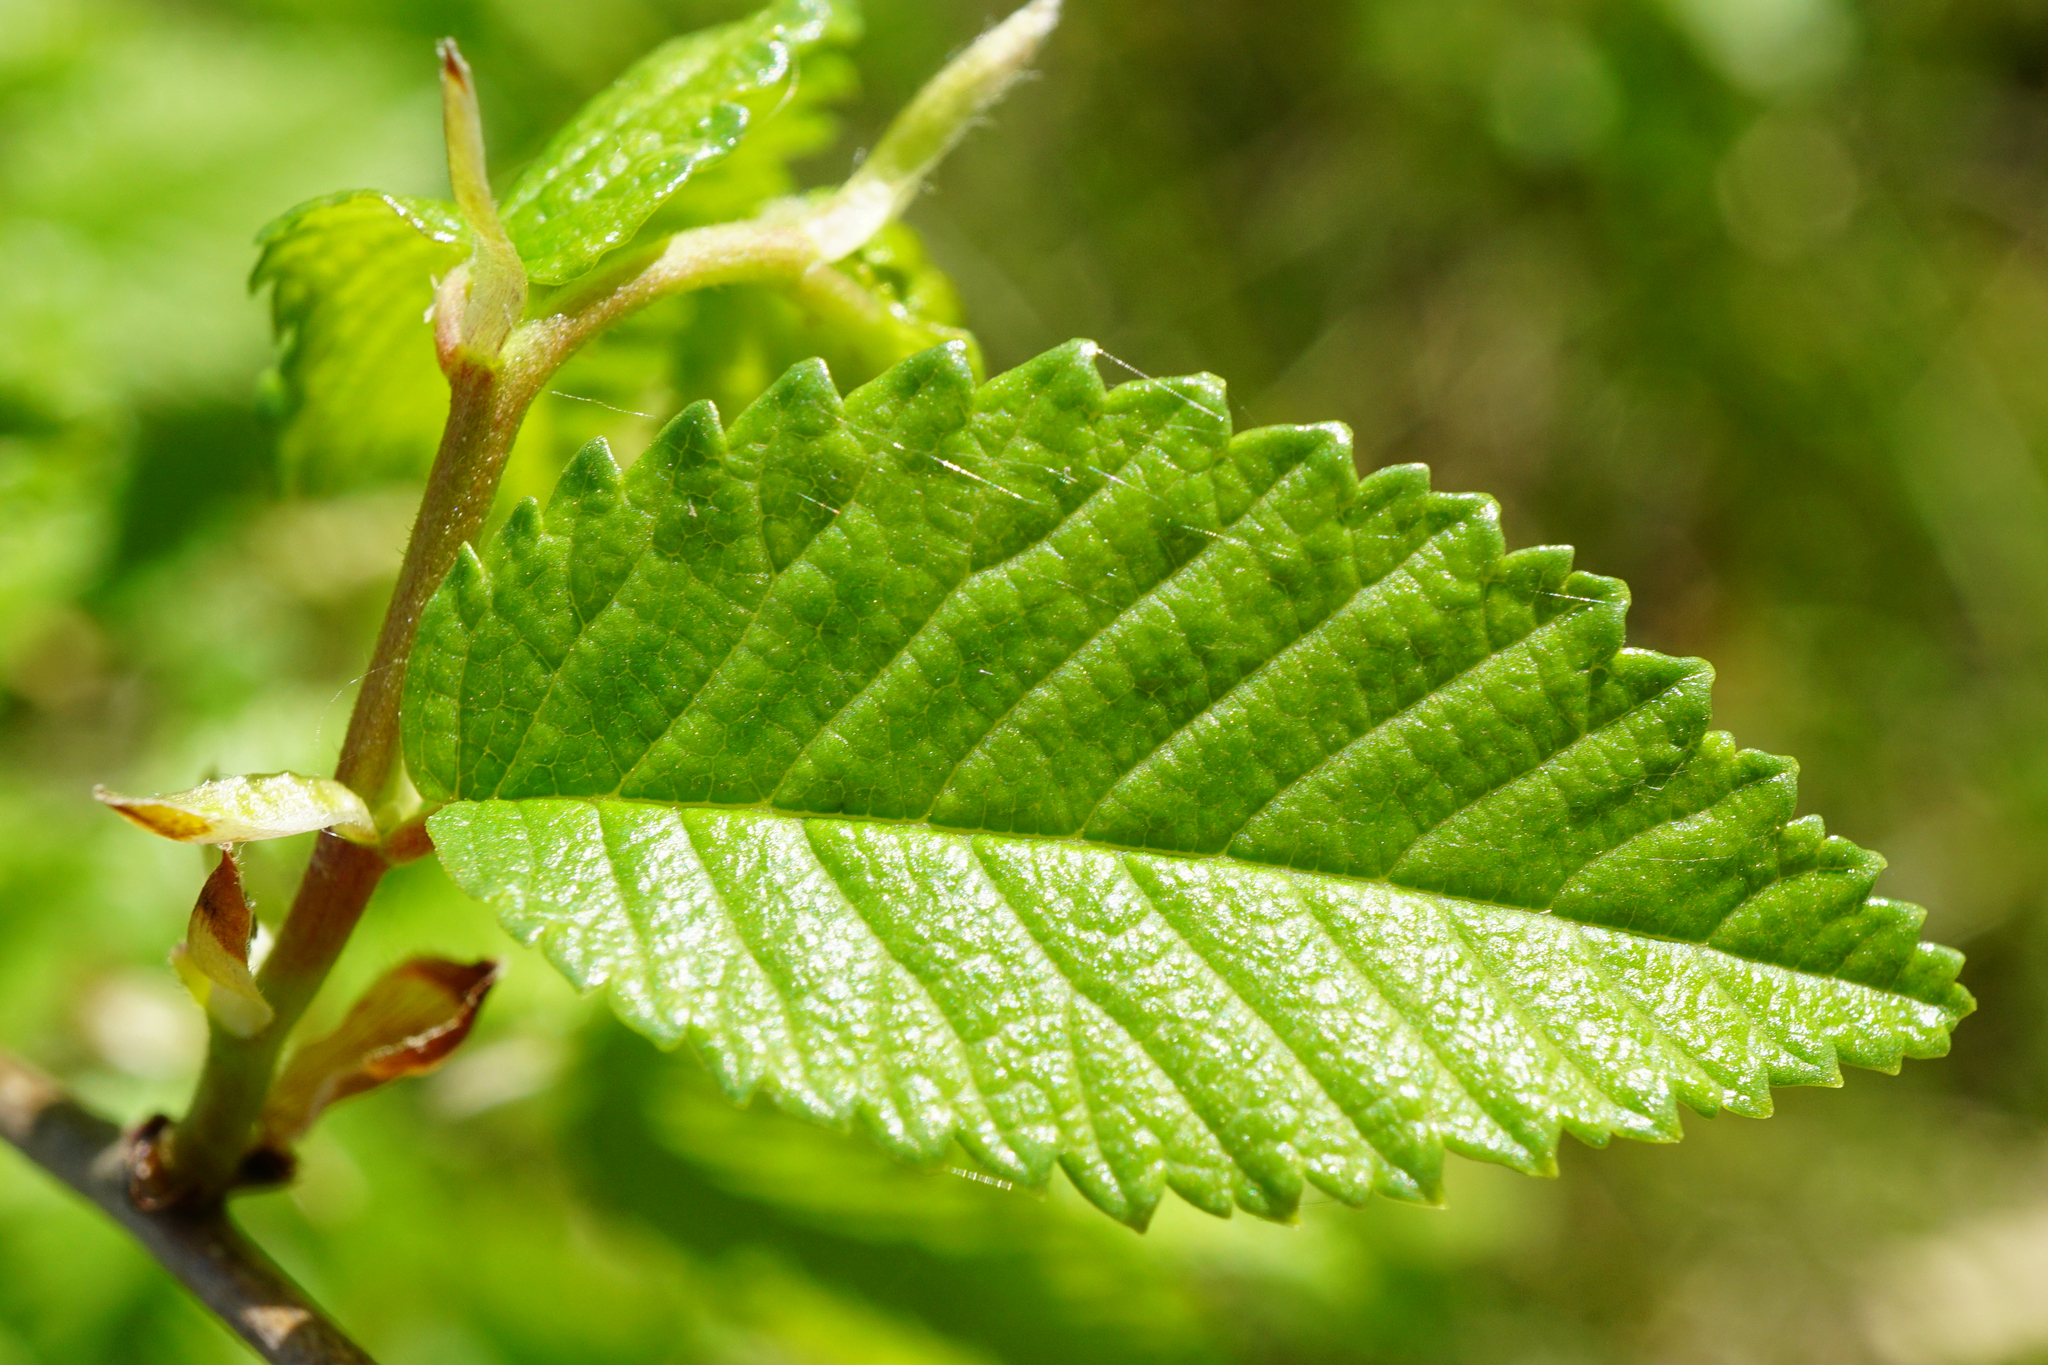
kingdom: Plantae
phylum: Tracheophyta
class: Magnoliopsida
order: Rosales
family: Ulmaceae
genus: Ulmus
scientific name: Ulmus minor
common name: Small-leaved elm
